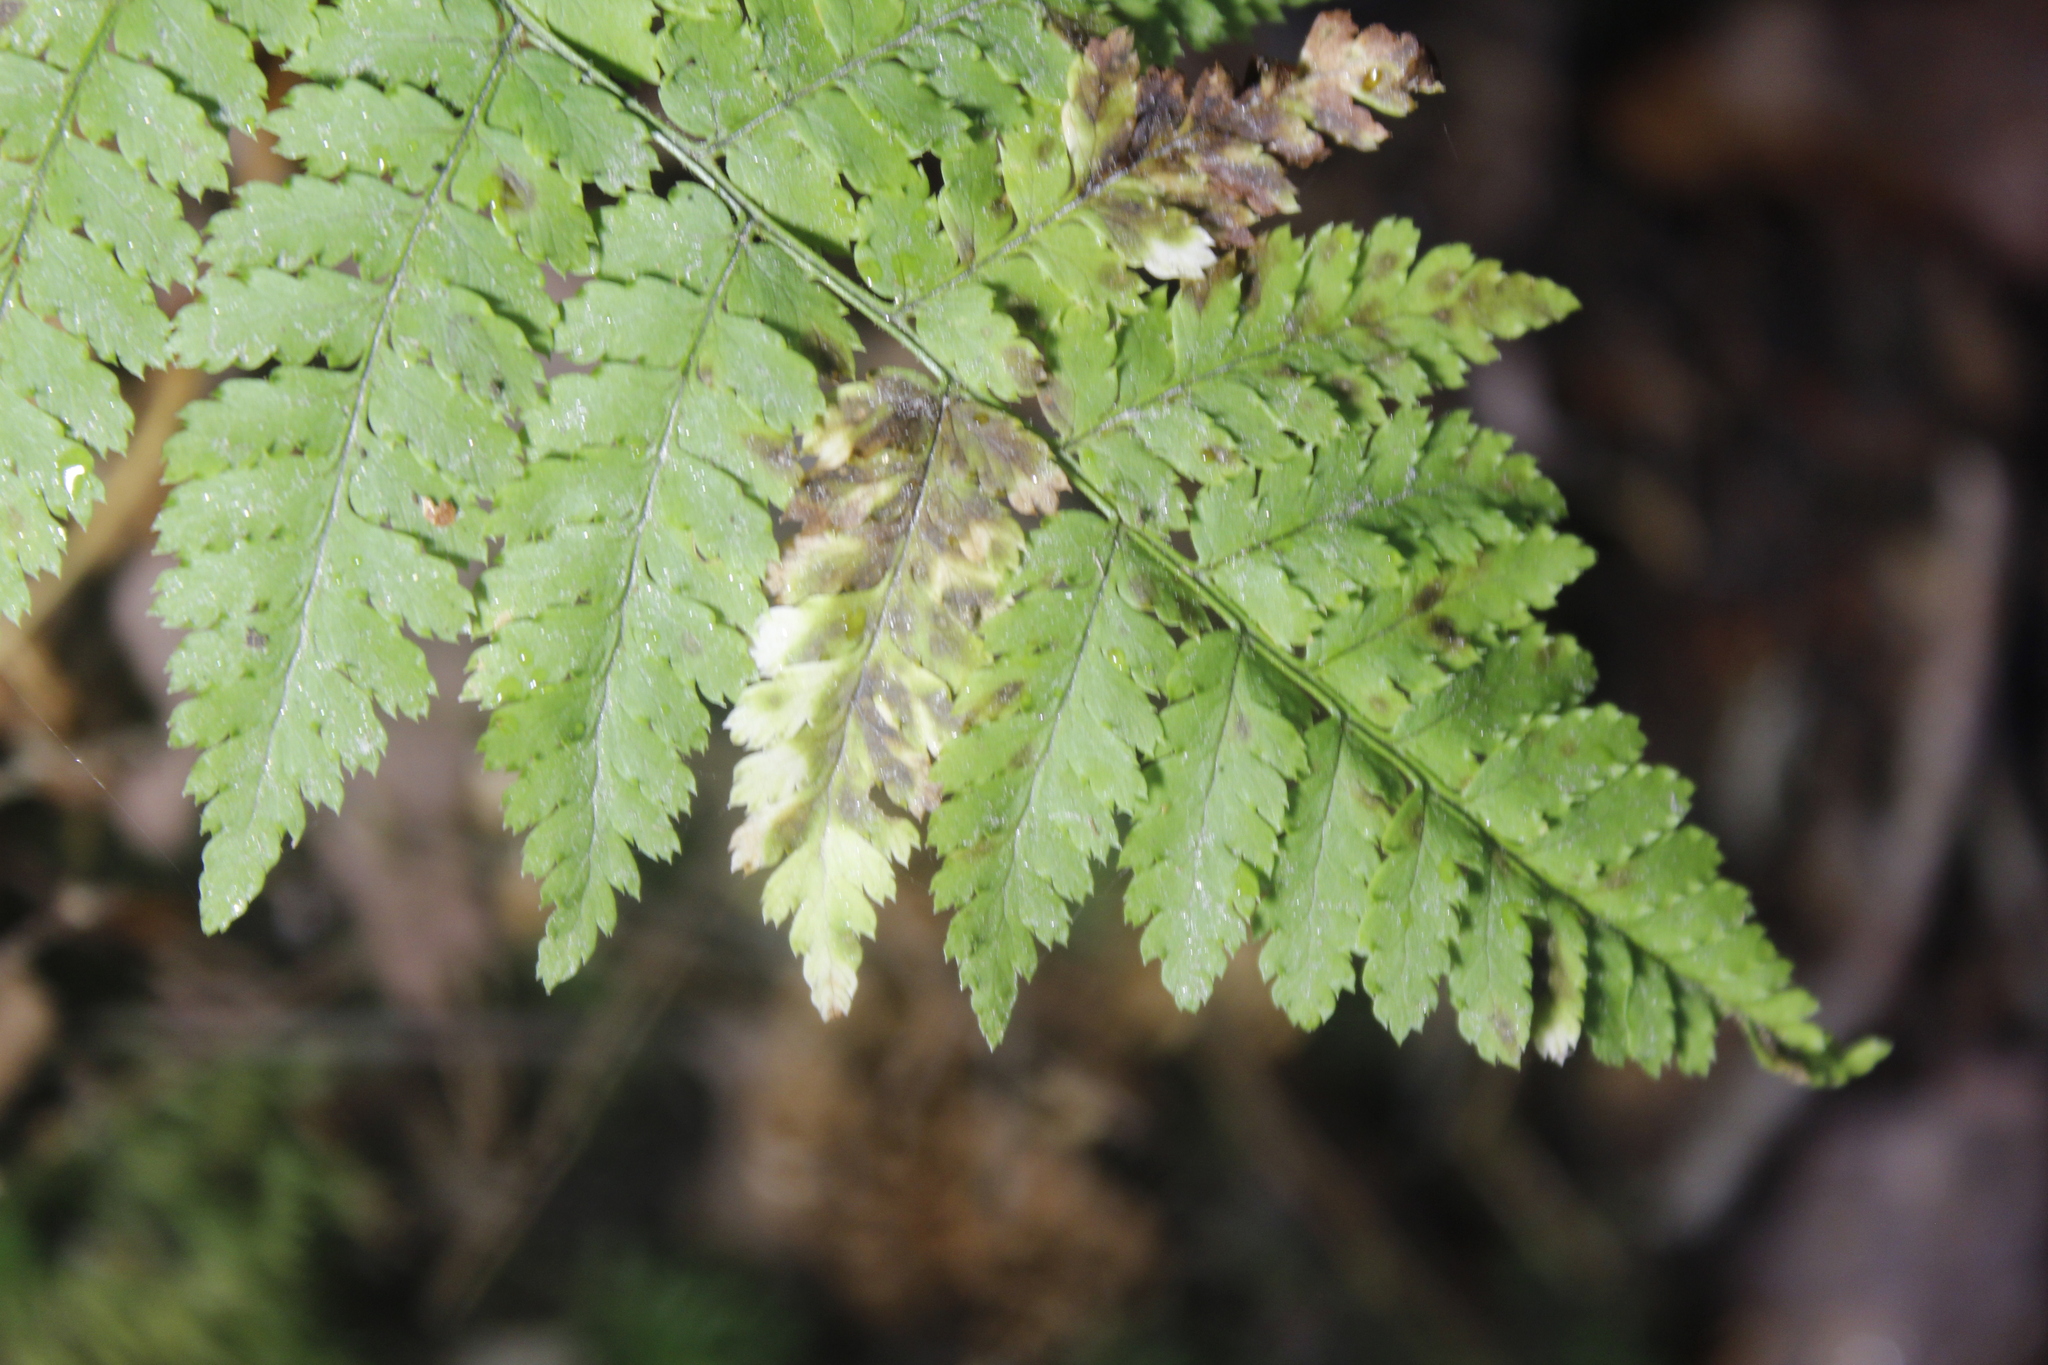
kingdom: Plantae
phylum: Tracheophyta
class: Polypodiopsida
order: Polypodiales
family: Dryopteridaceae
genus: Dryopteris
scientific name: Dryopteris
